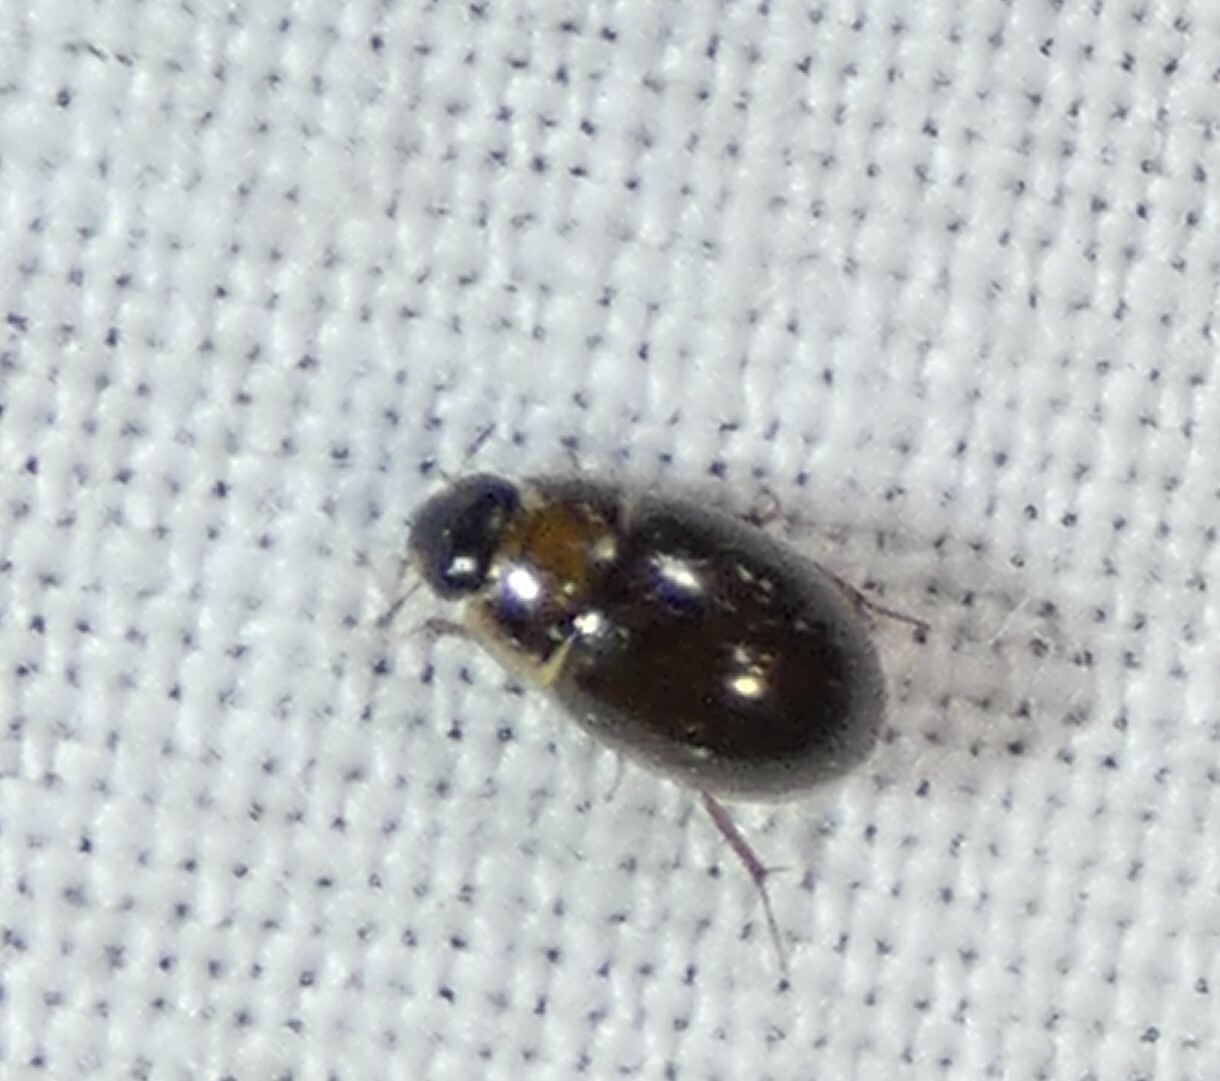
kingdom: Animalia
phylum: Arthropoda
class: Insecta
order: Coleoptera
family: Hydrophilidae
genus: Enochrus
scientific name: Enochrus
